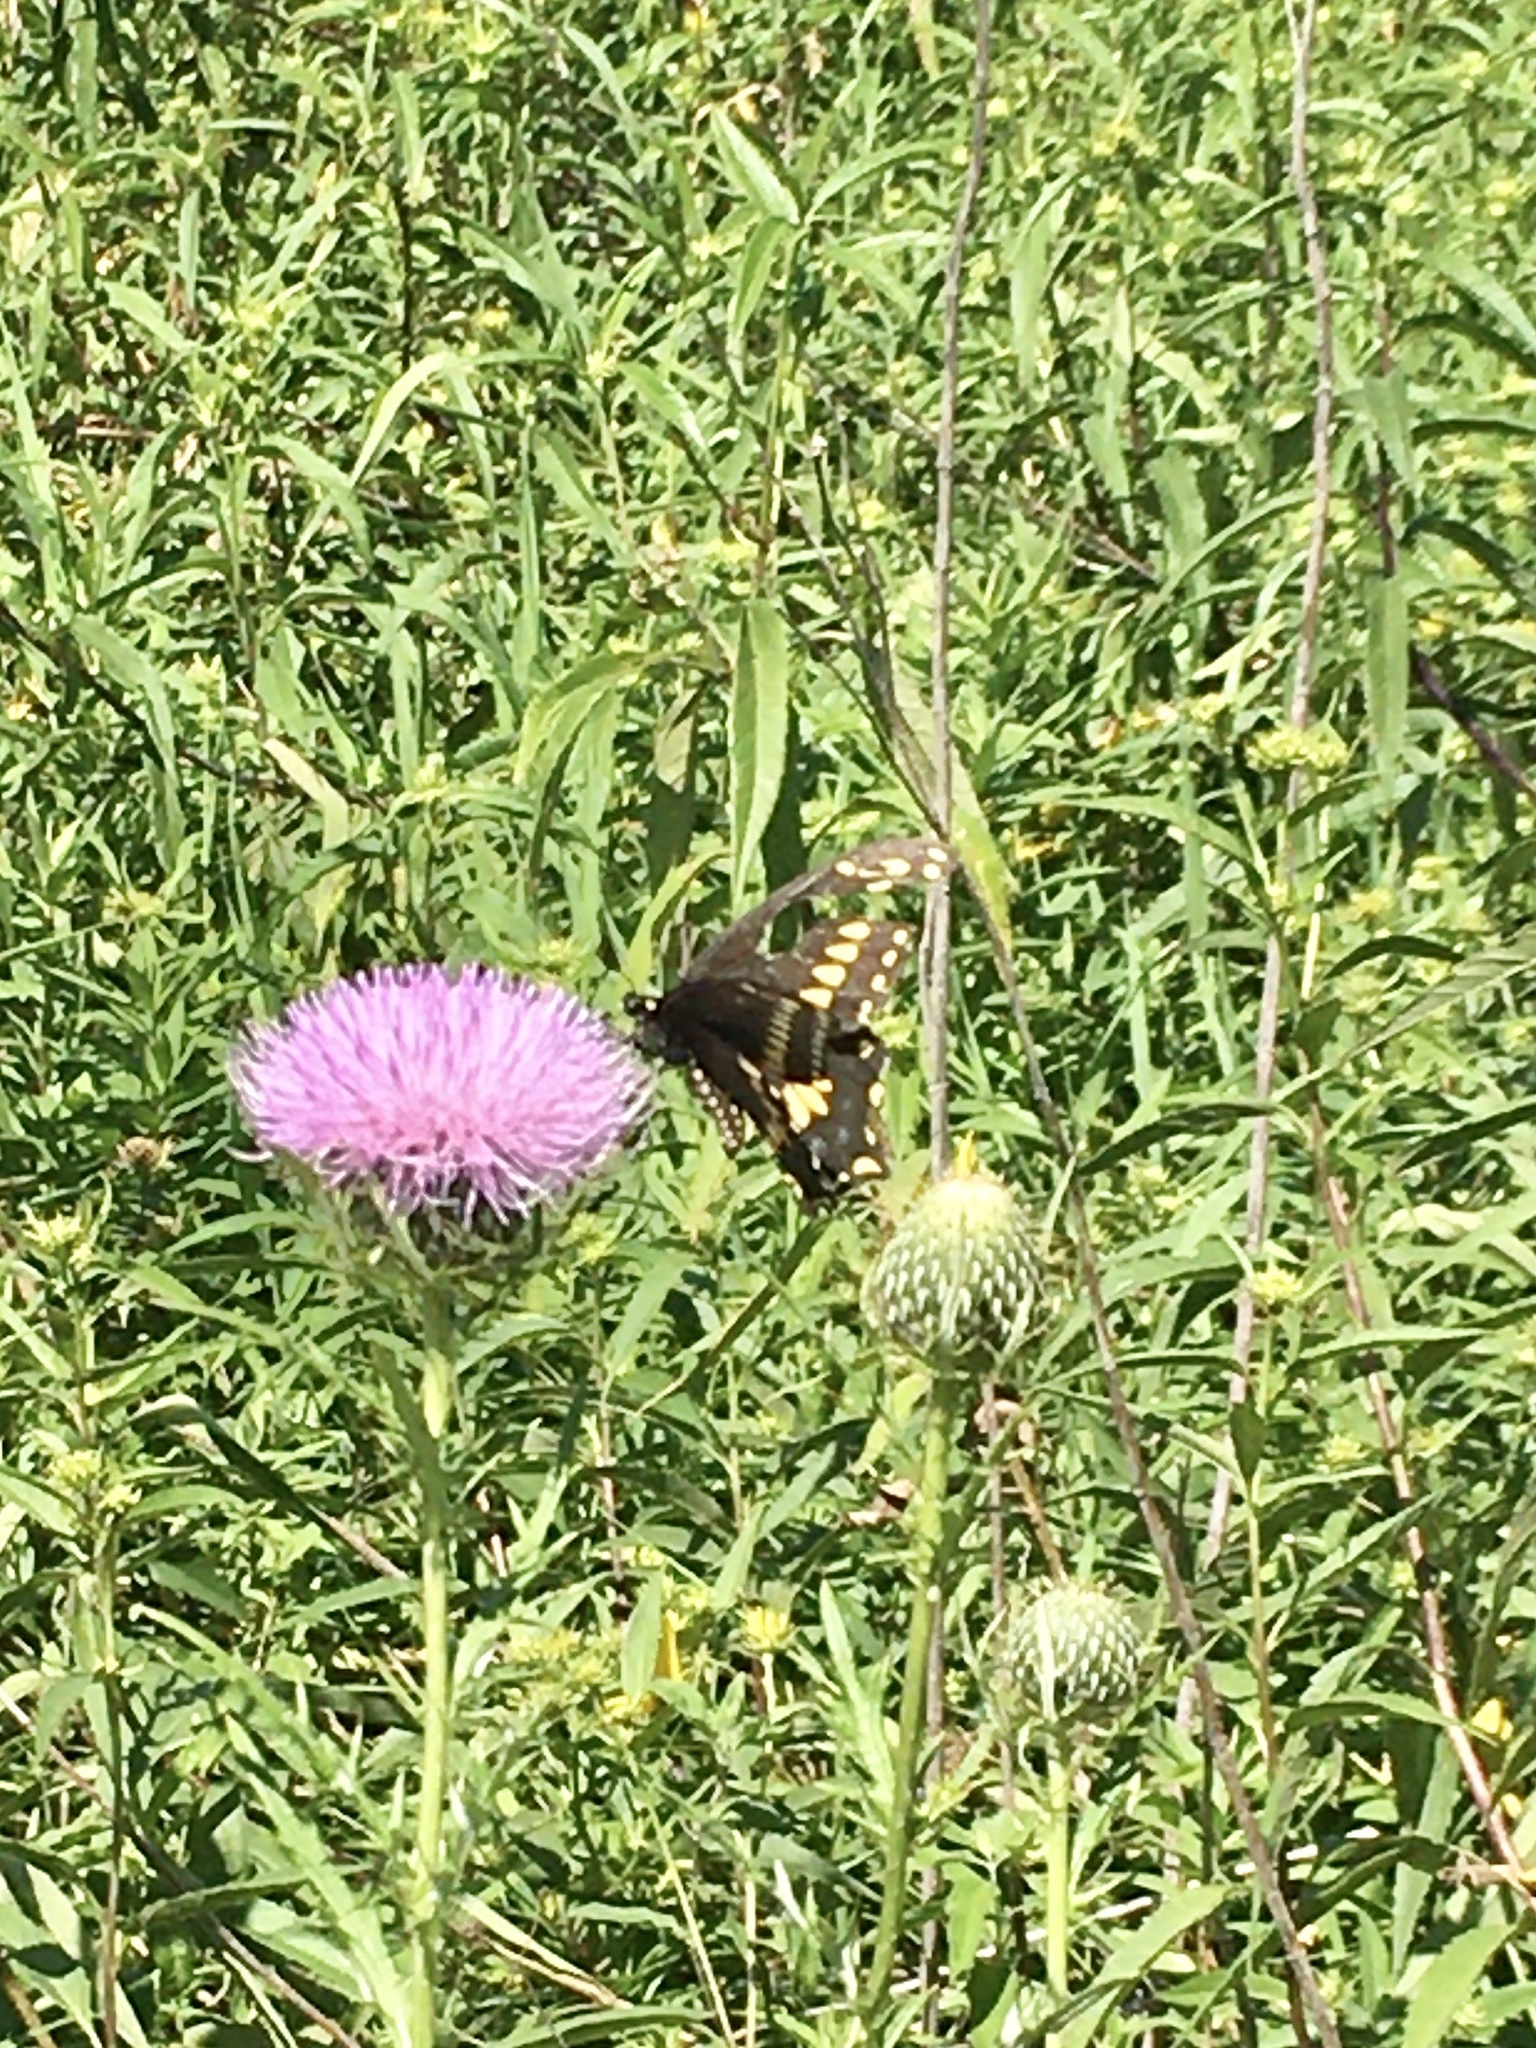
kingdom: Animalia
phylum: Arthropoda
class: Insecta
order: Lepidoptera
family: Papilionidae
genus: Papilio
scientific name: Papilio polyxenes
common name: Black swallowtail
